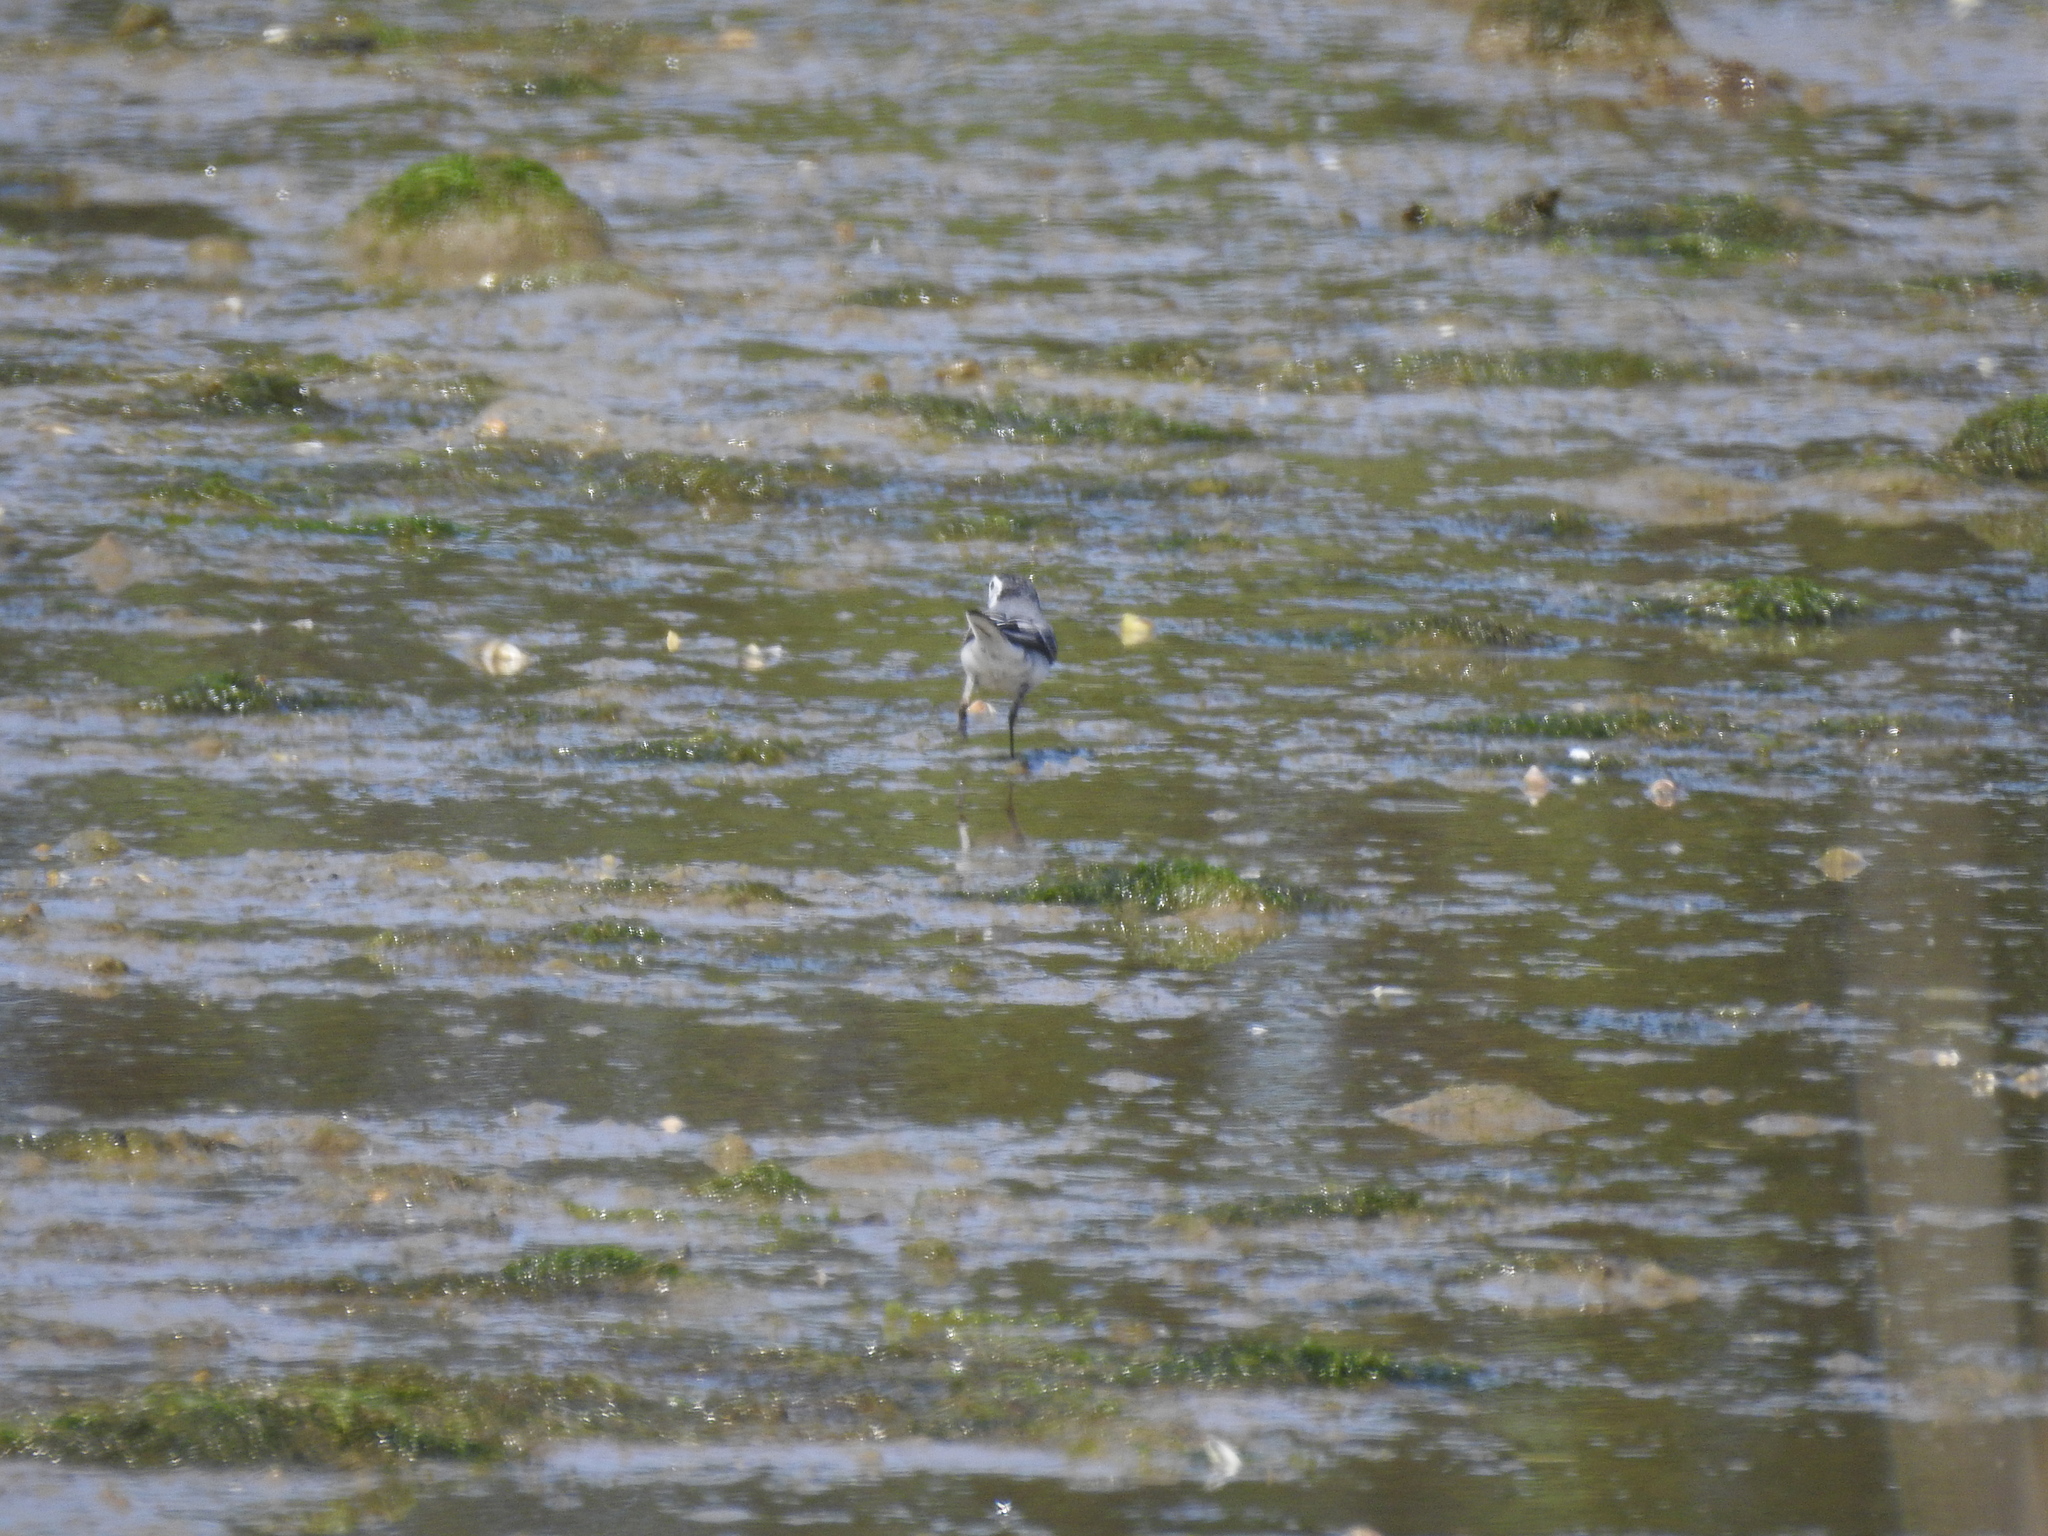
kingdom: Animalia
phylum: Chordata
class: Aves
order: Passeriformes
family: Motacillidae
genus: Motacilla
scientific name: Motacilla alba
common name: White wagtail
